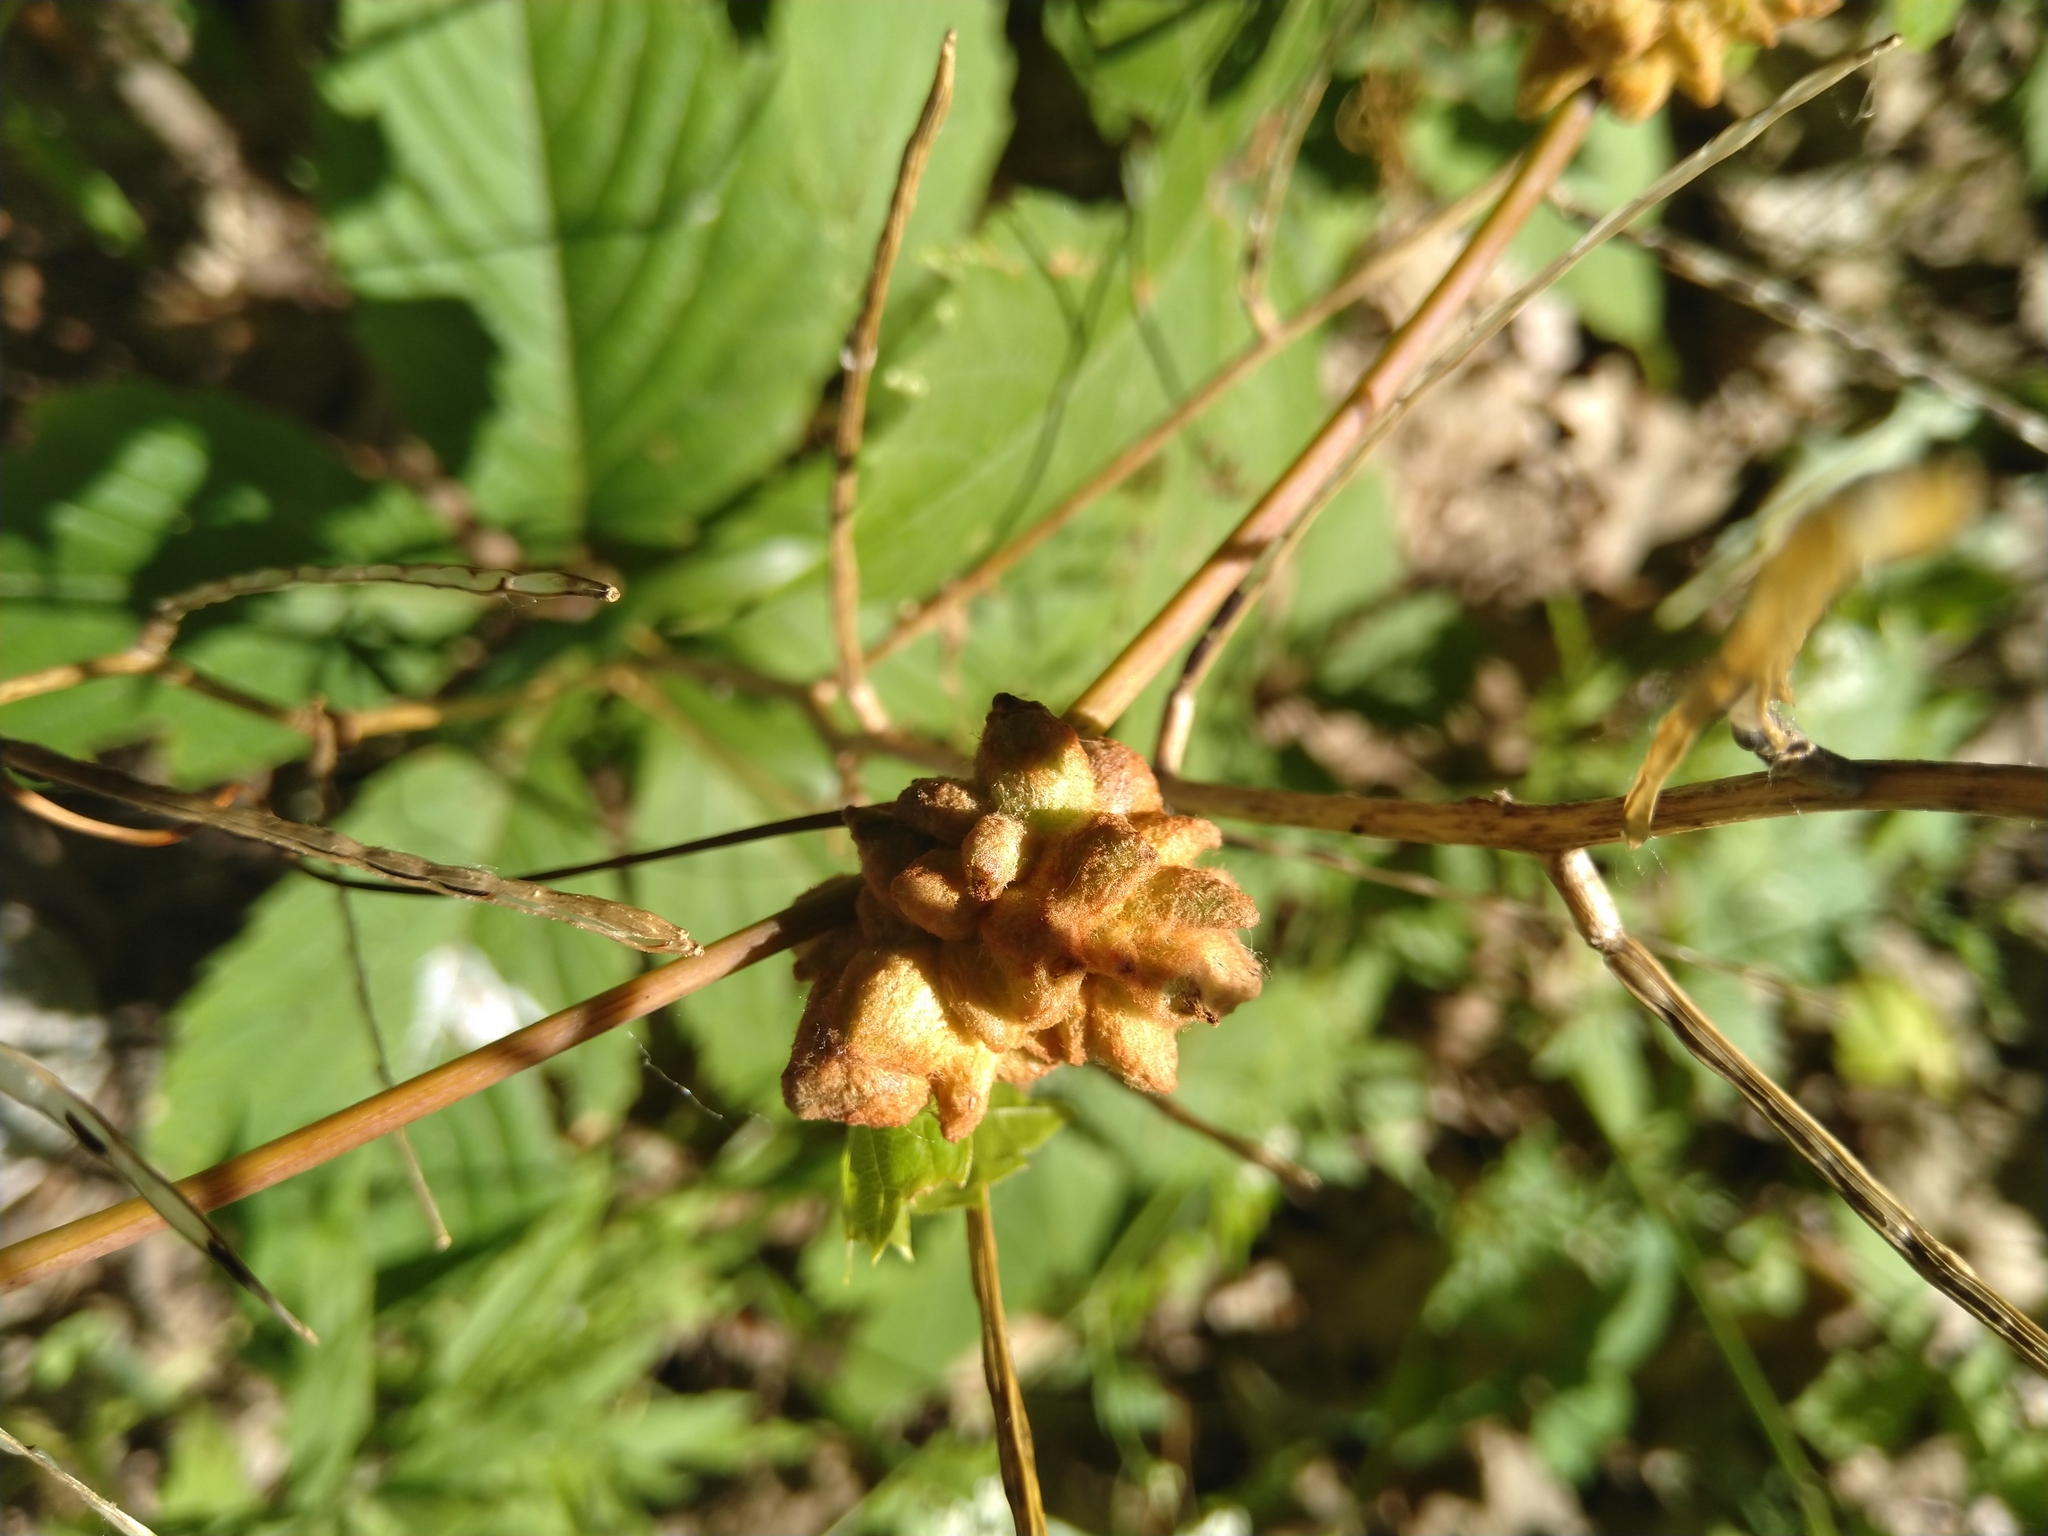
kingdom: Animalia
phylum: Arthropoda
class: Insecta
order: Diptera
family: Cecidomyiidae
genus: Ampelomyia
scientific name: Ampelomyia vitiscoryloides
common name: Grape filbert gall
